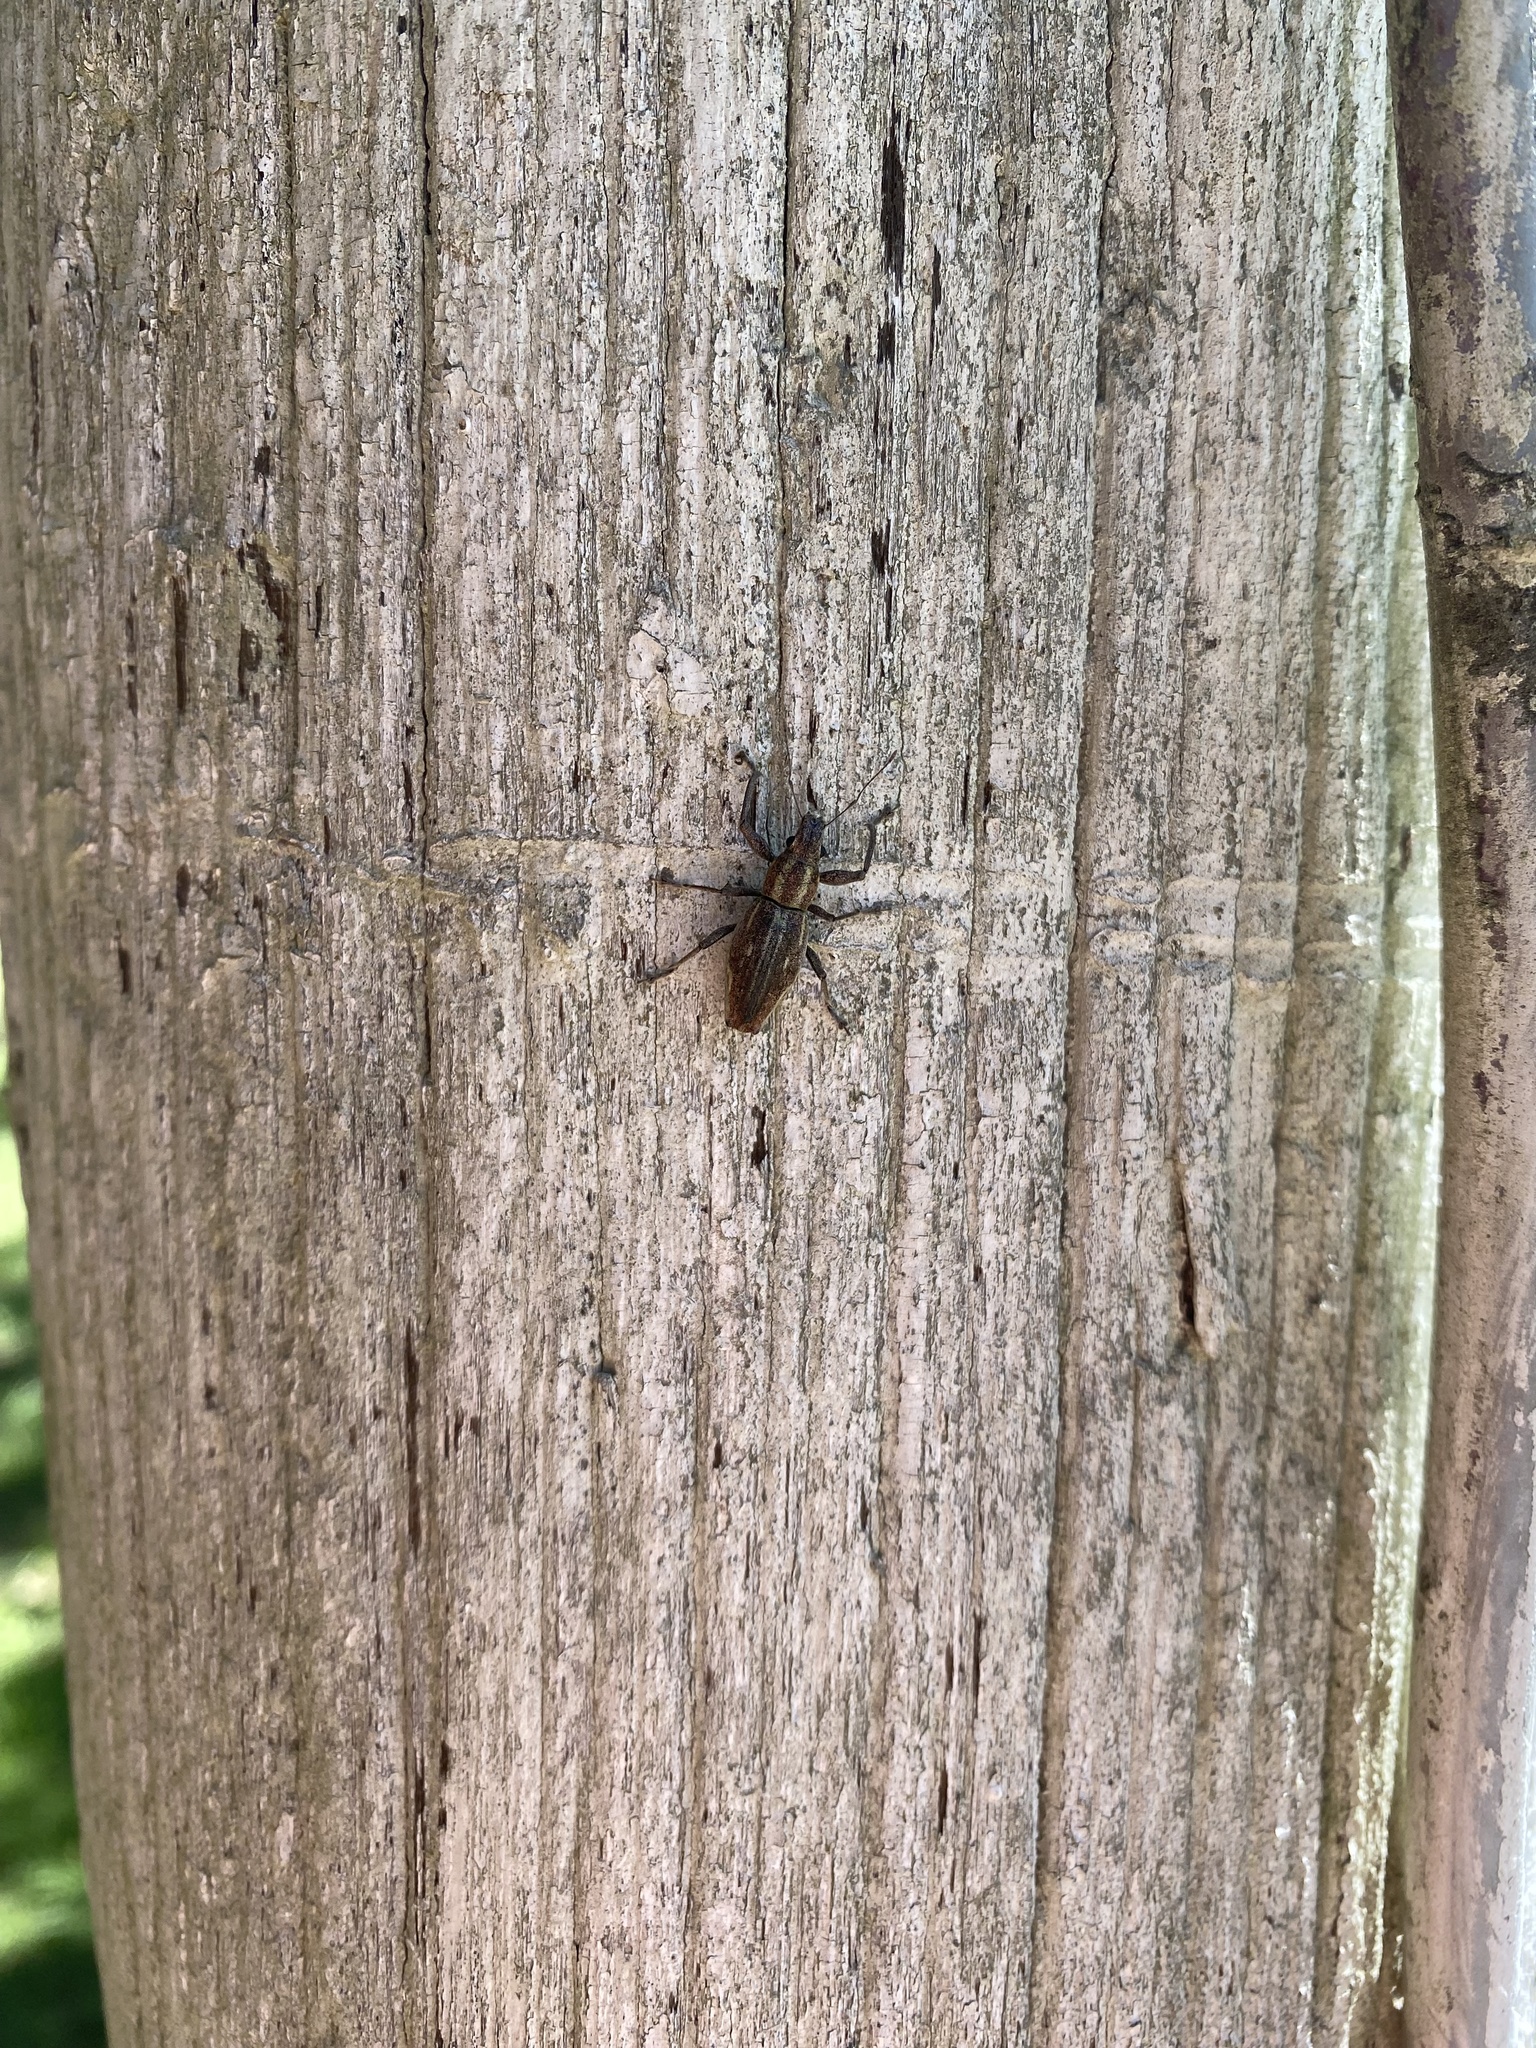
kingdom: Animalia
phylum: Arthropoda
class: Insecta
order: Coleoptera
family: Curculionidae
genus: Naupactus
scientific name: Naupactus xanthographus
